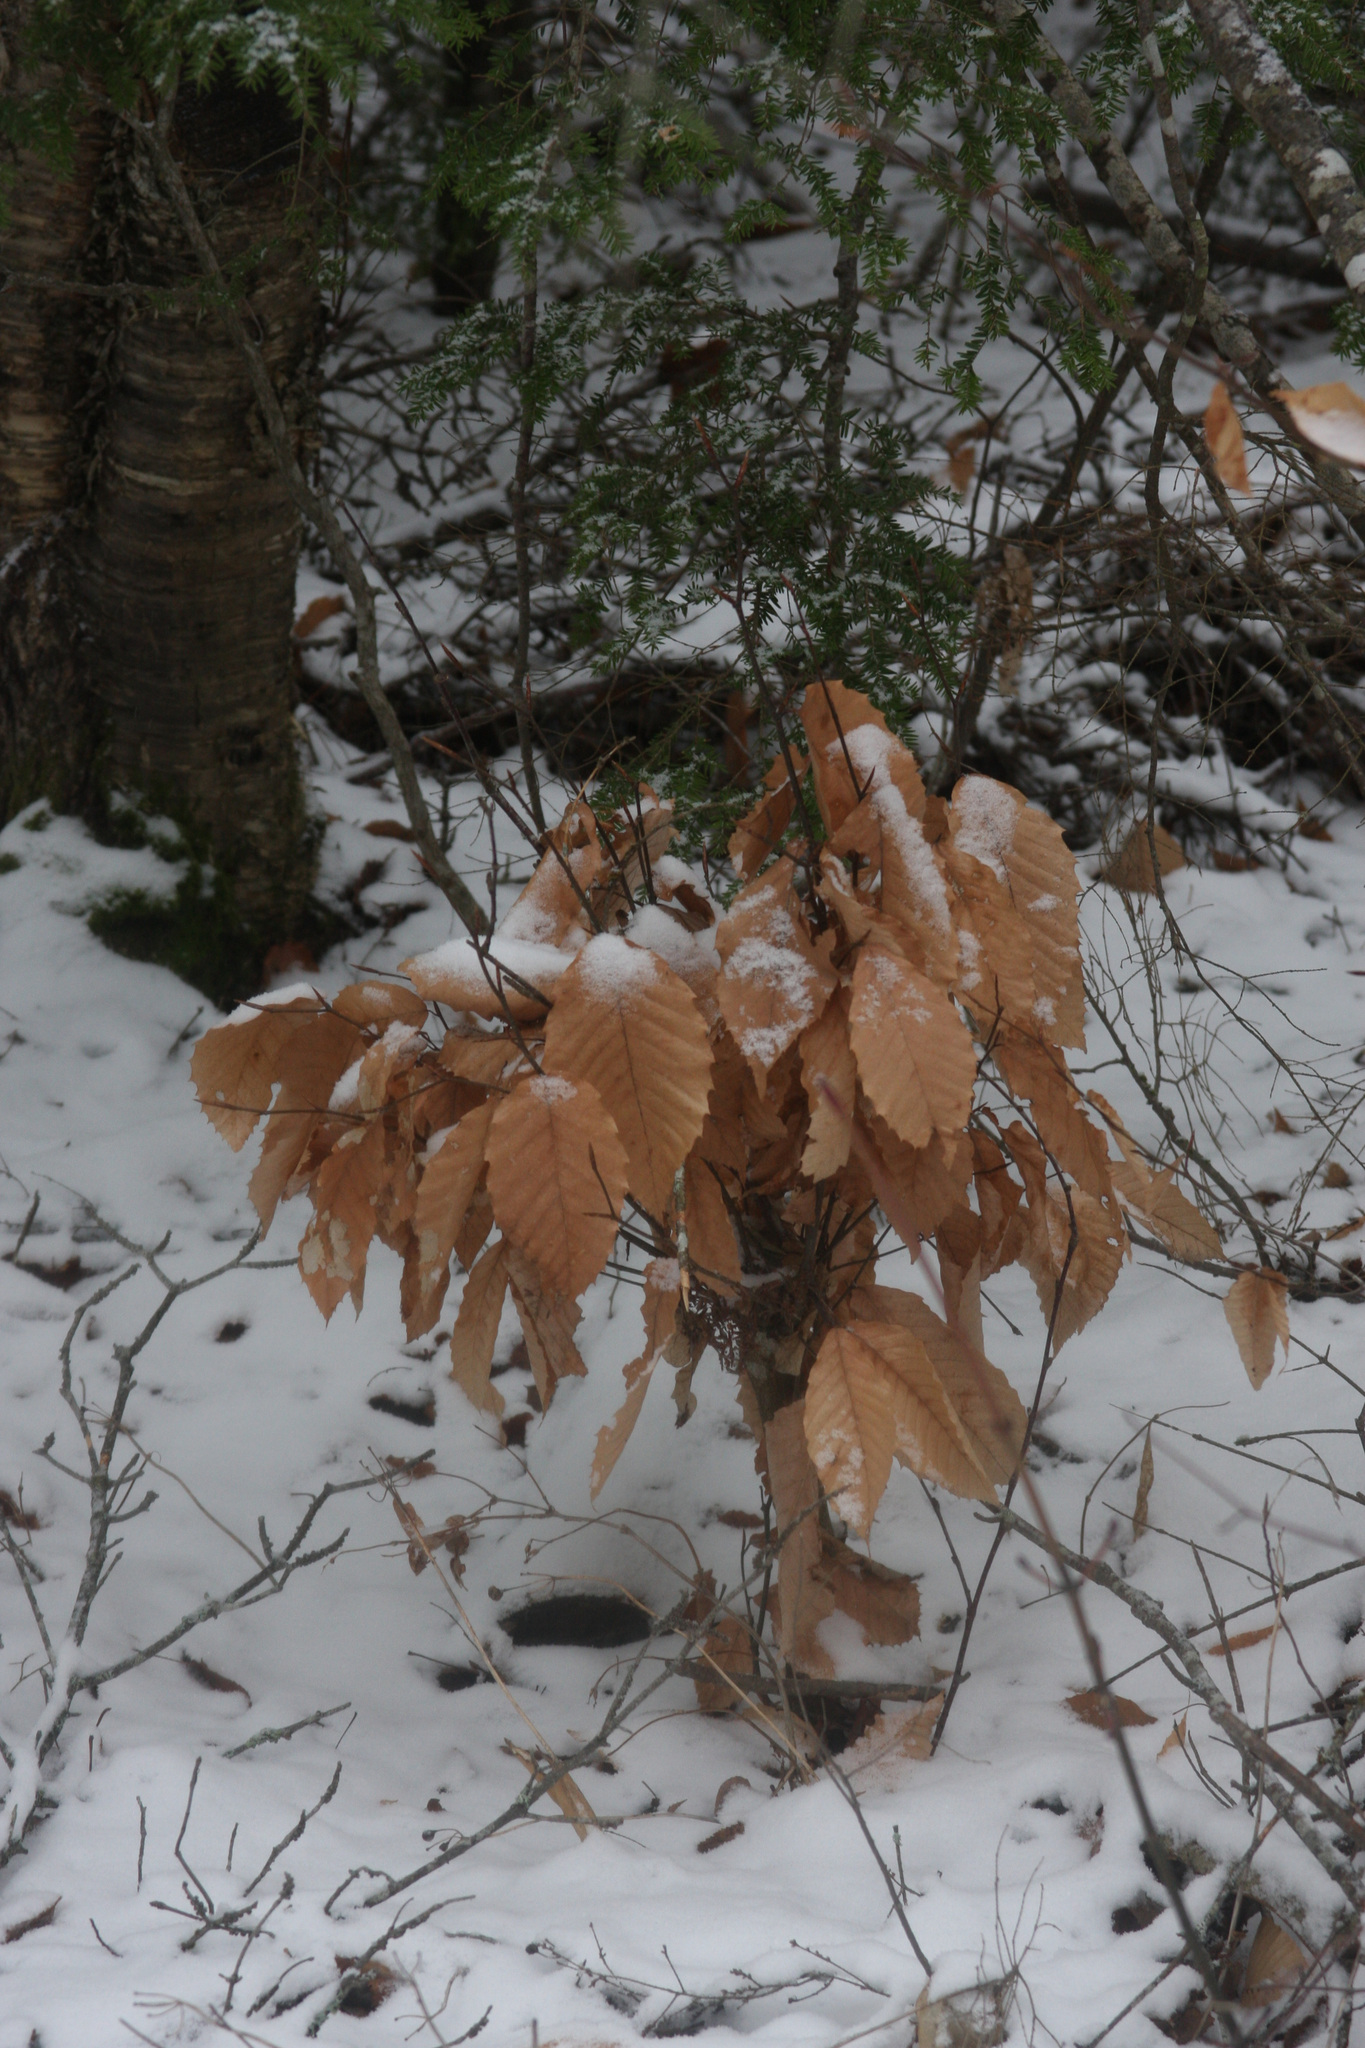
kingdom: Plantae
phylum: Tracheophyta
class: Magnoliopsida
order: Fagales
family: Fagaceae
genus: Fagus
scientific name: Fagus grandifolia
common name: American beech
